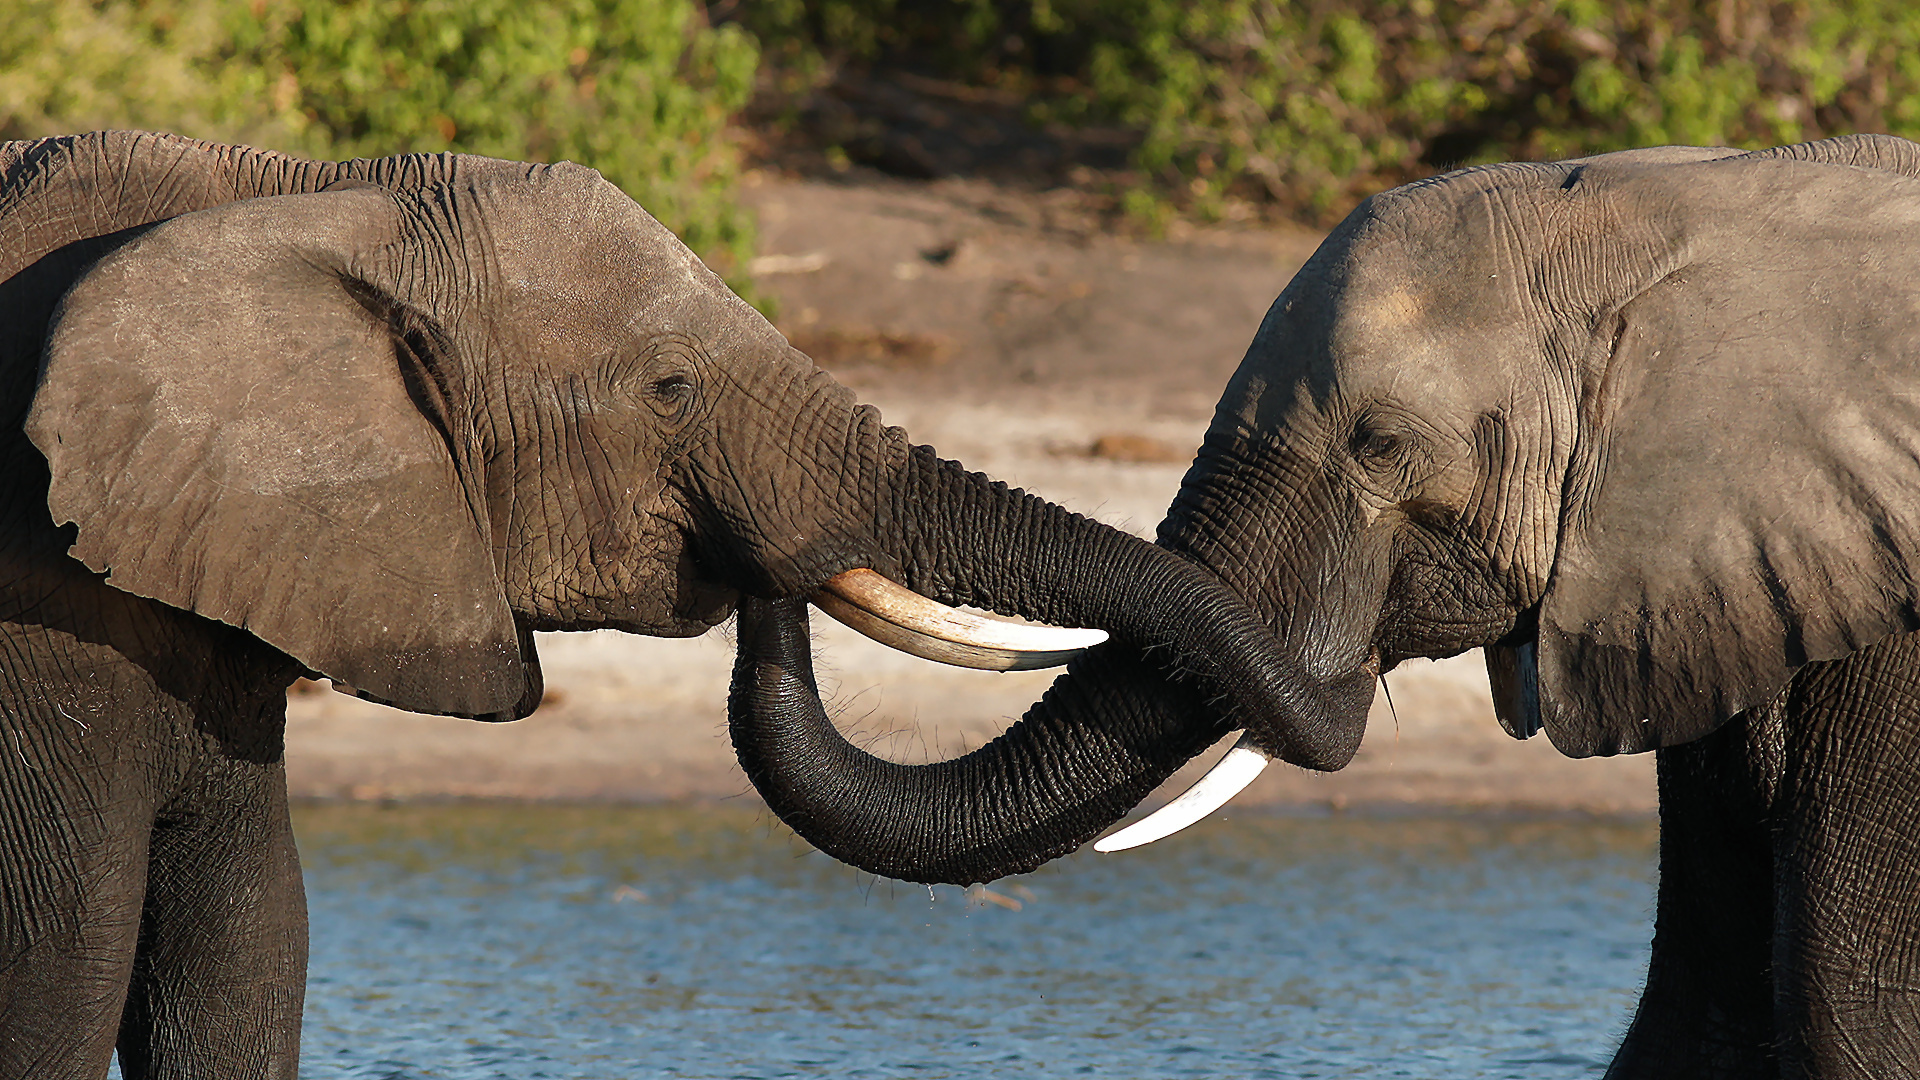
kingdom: Animalia
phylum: Chordata
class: Mammalia
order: Proboscidea
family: Elephantidae
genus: Loxodonta
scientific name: Loxodonta africana
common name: African elephant
